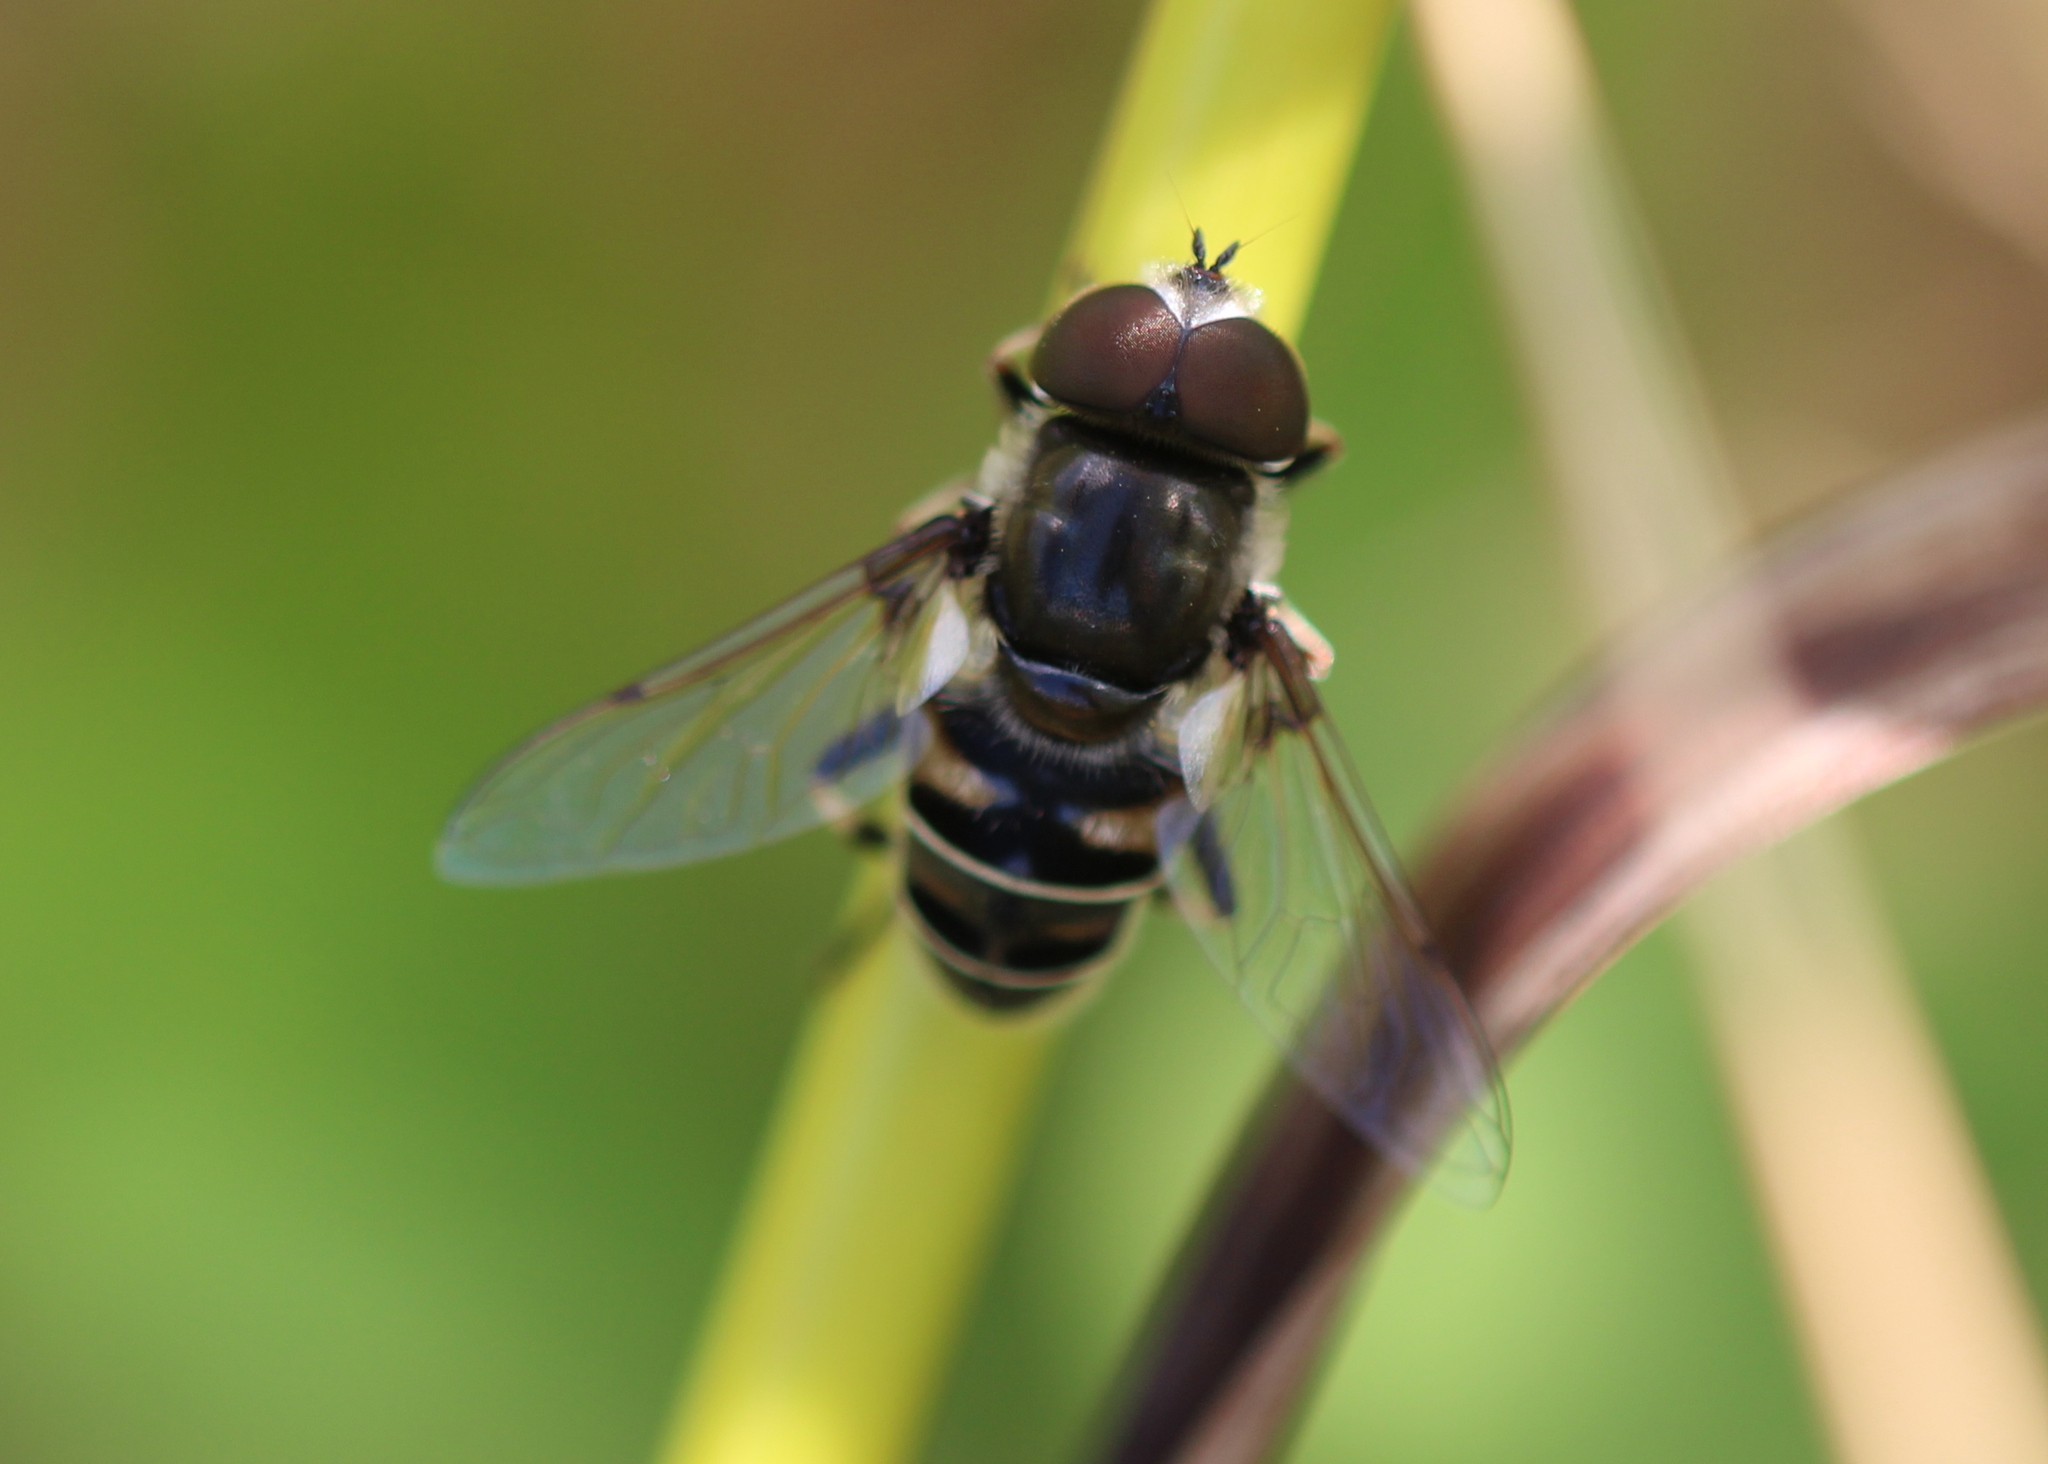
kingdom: Animalia
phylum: Arthropoda
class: Insecta
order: Diptera
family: Syrphidae
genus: Eristalis
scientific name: Eristalis dimidiata
